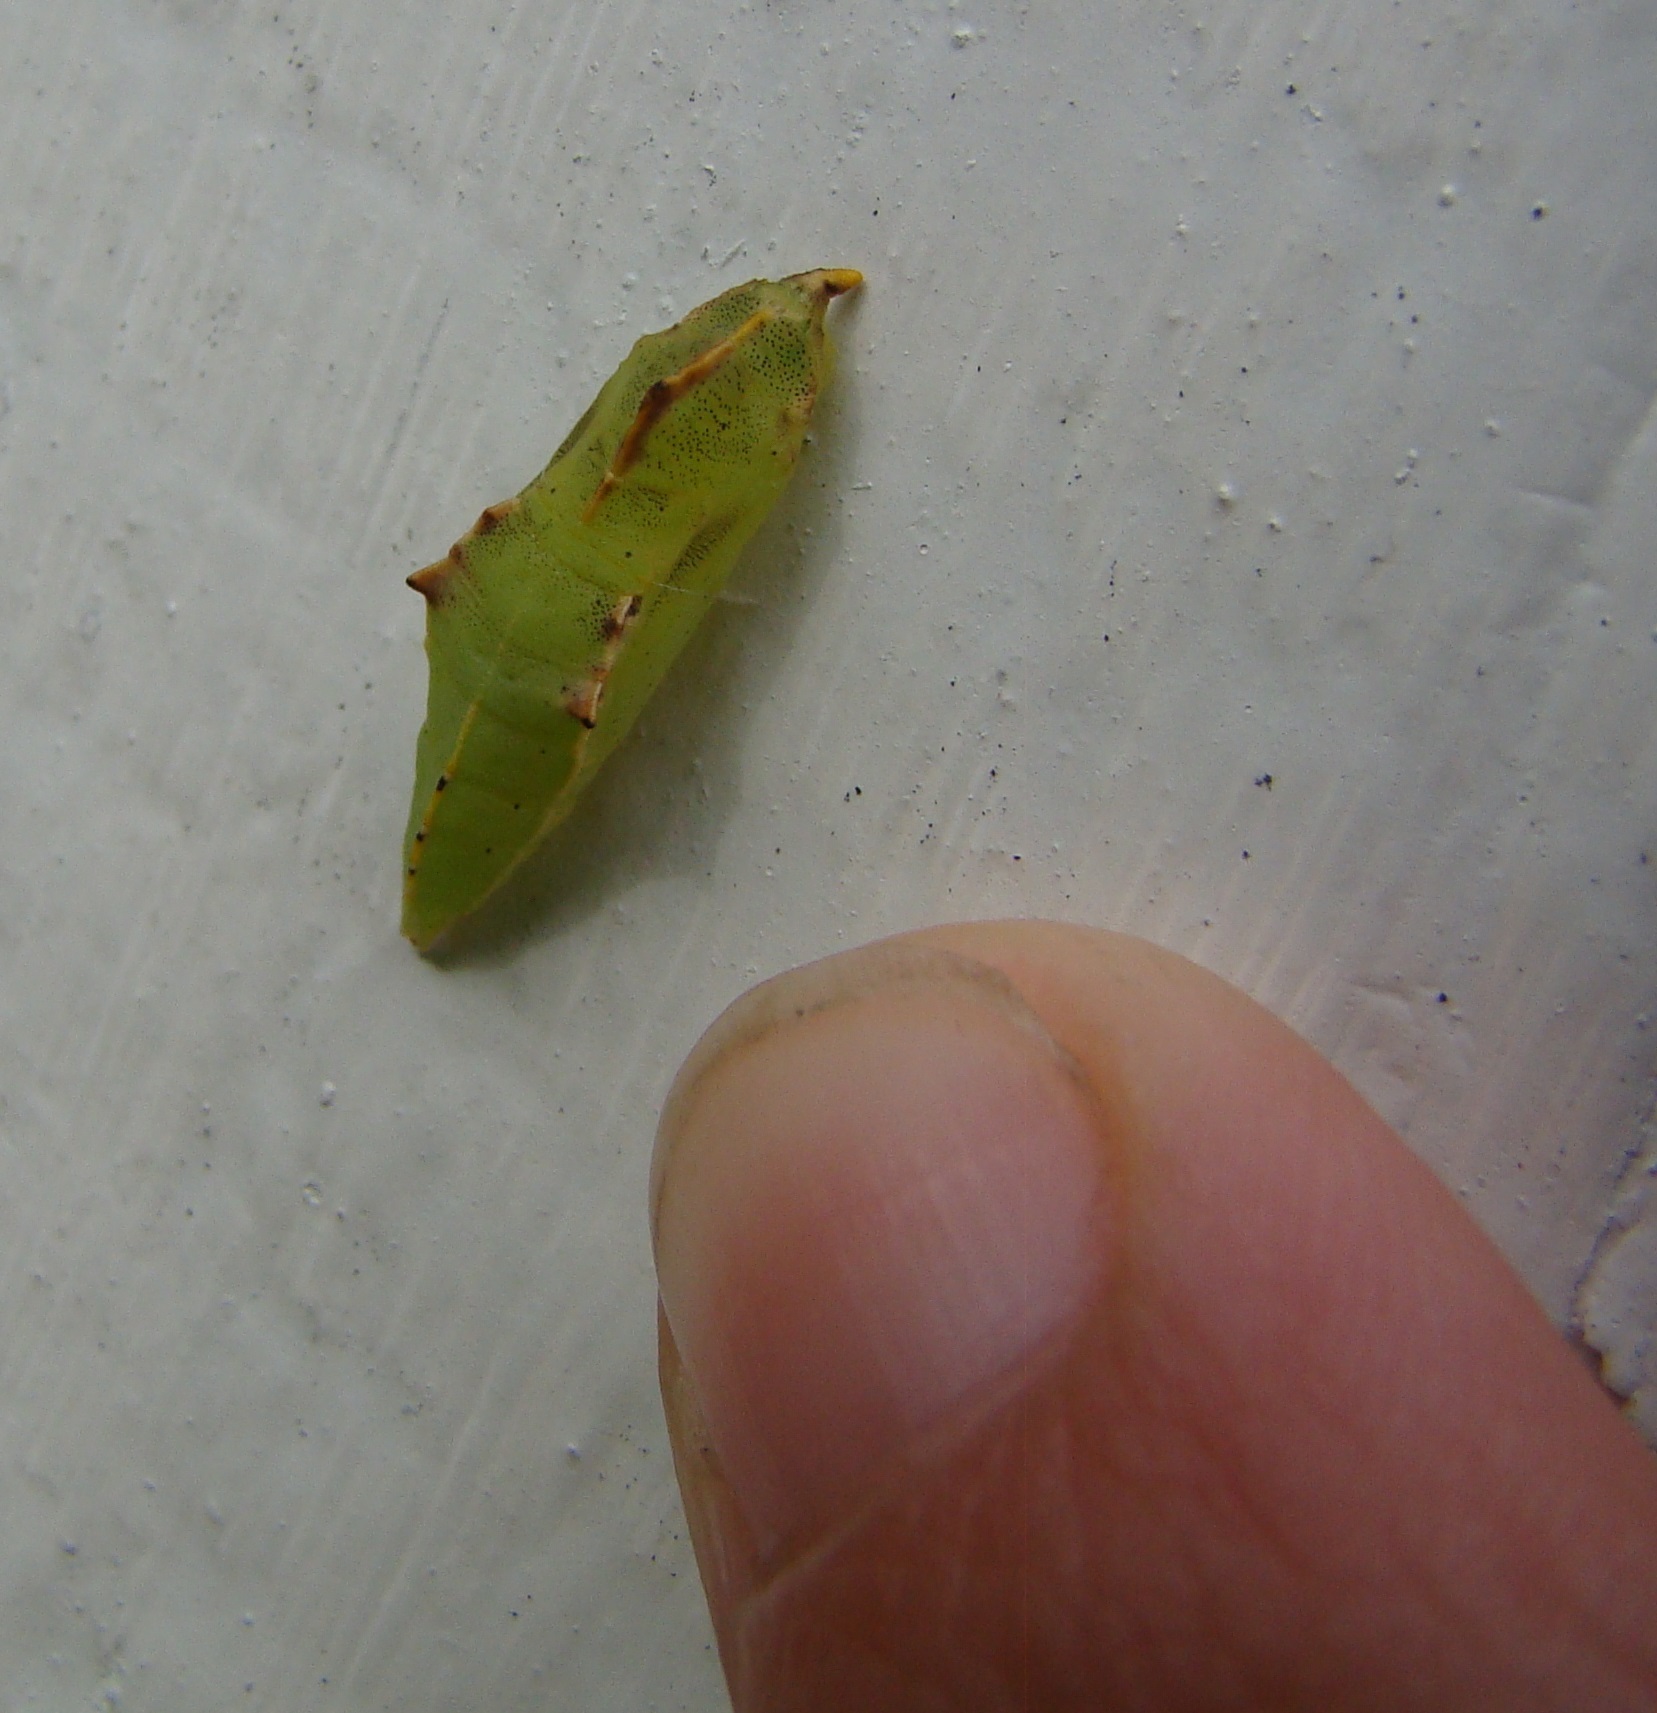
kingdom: Animalia
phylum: Arthropoda
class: Insecta
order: Lepidoptera
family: Pieridae
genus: Pieris
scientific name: Pieris rapae
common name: Small white
